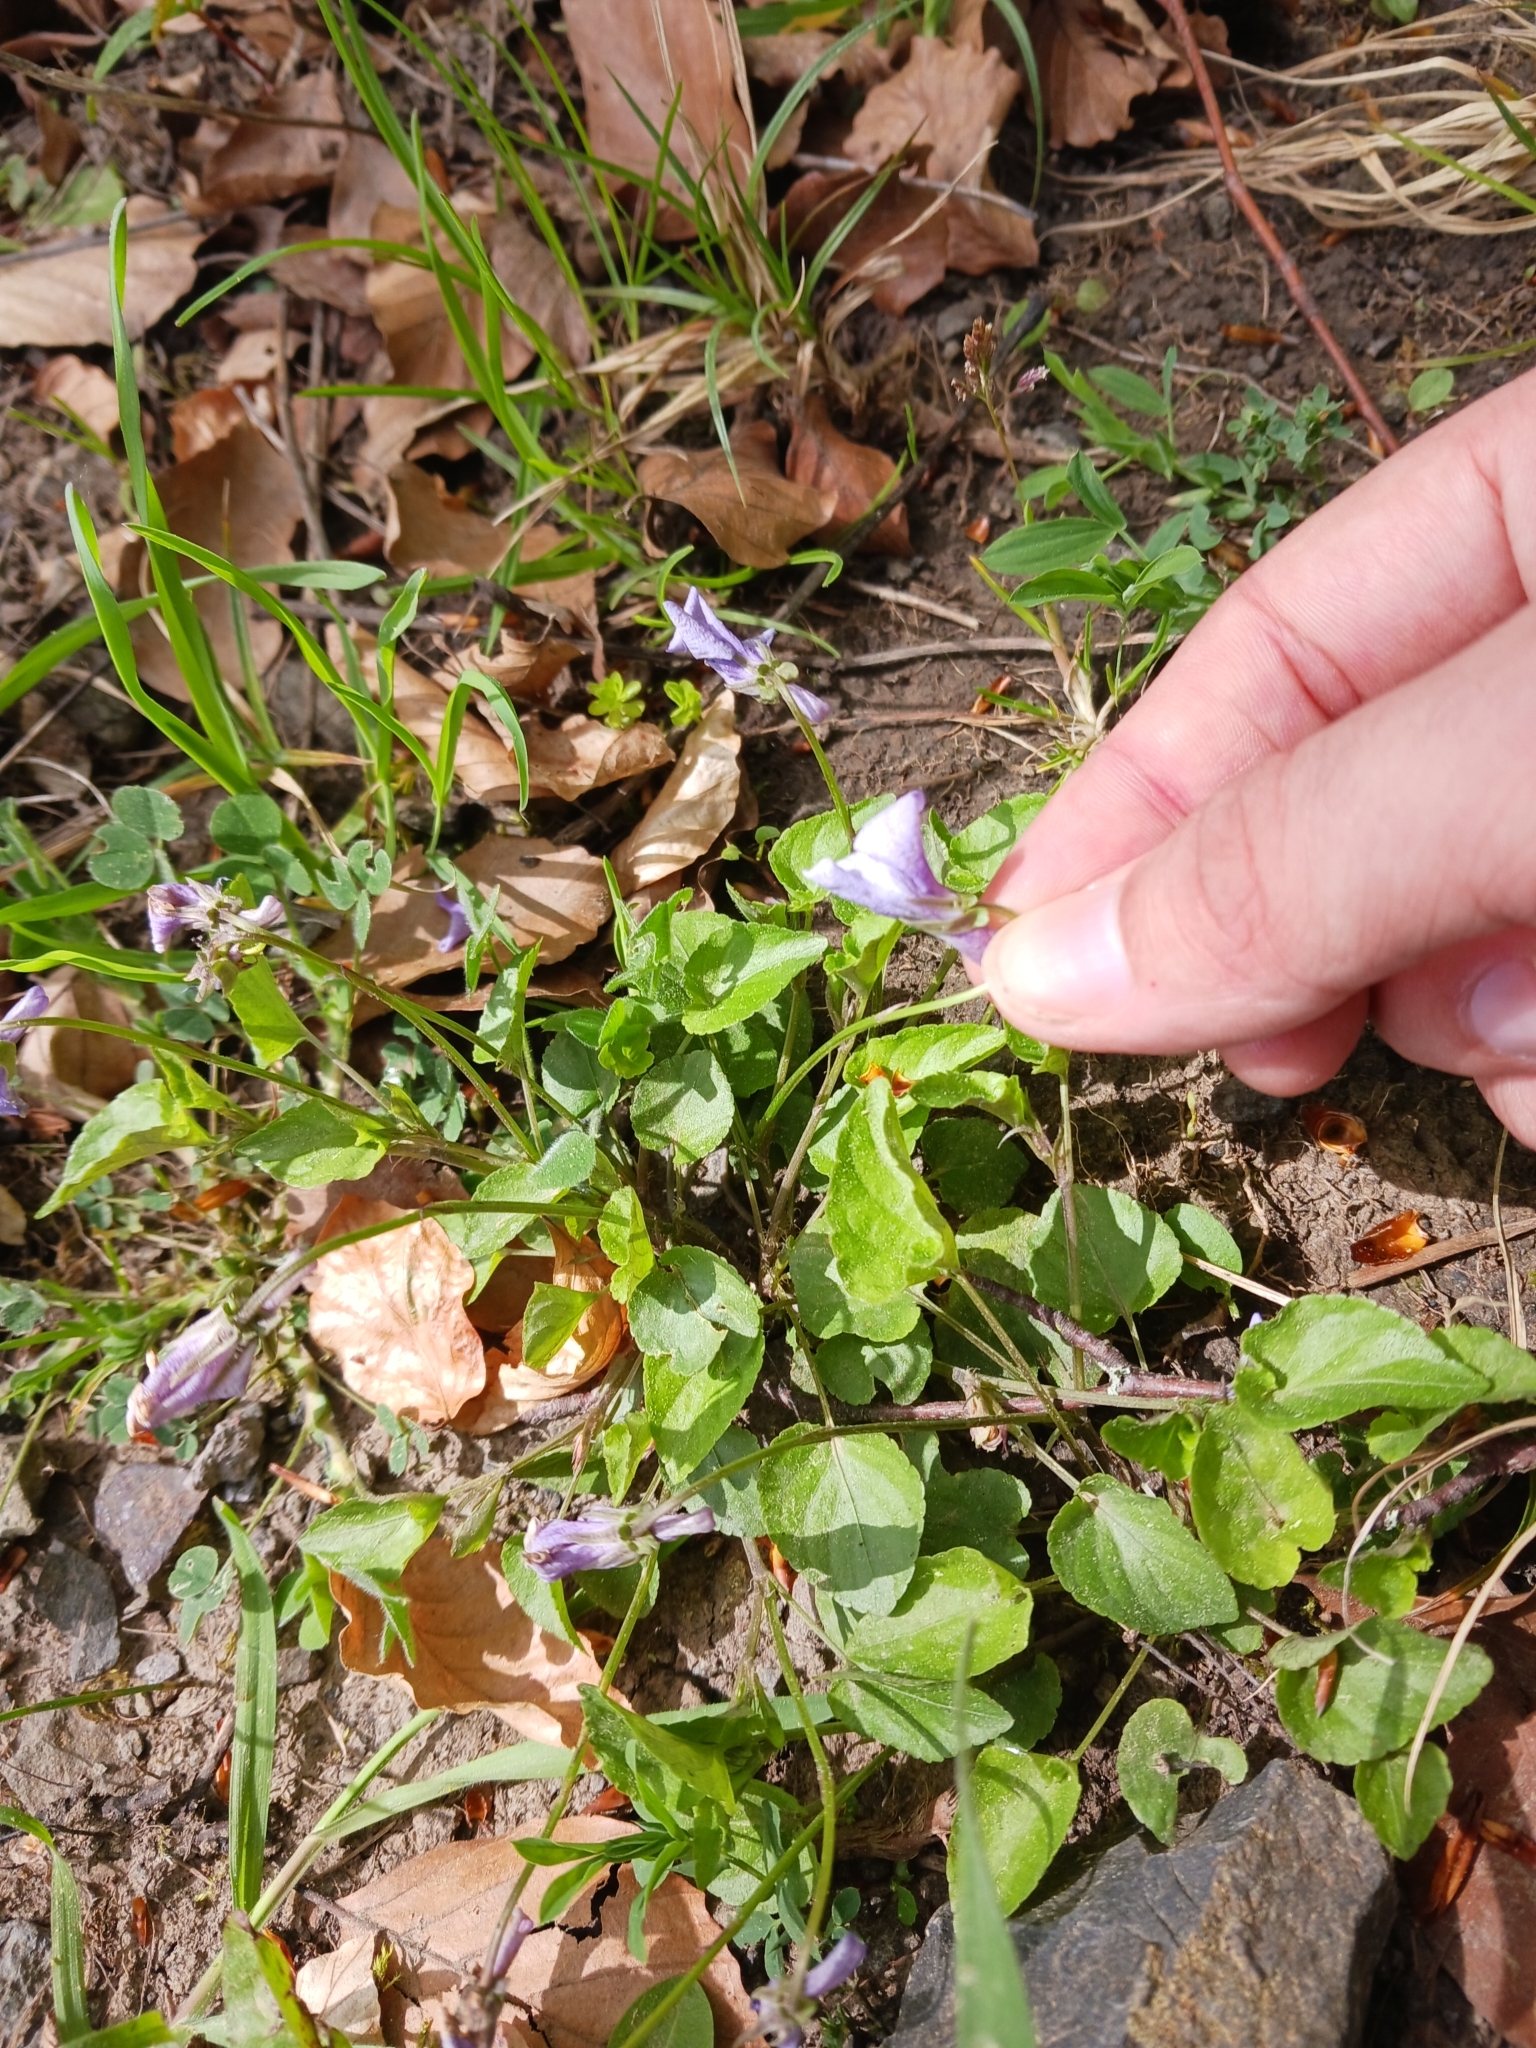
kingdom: Plantae
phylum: Tracheophyta
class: Magnoliopsida
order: Malpighiales
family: Violaceae
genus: Viola
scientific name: Viola reichenbachiana
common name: Early dog-violet
